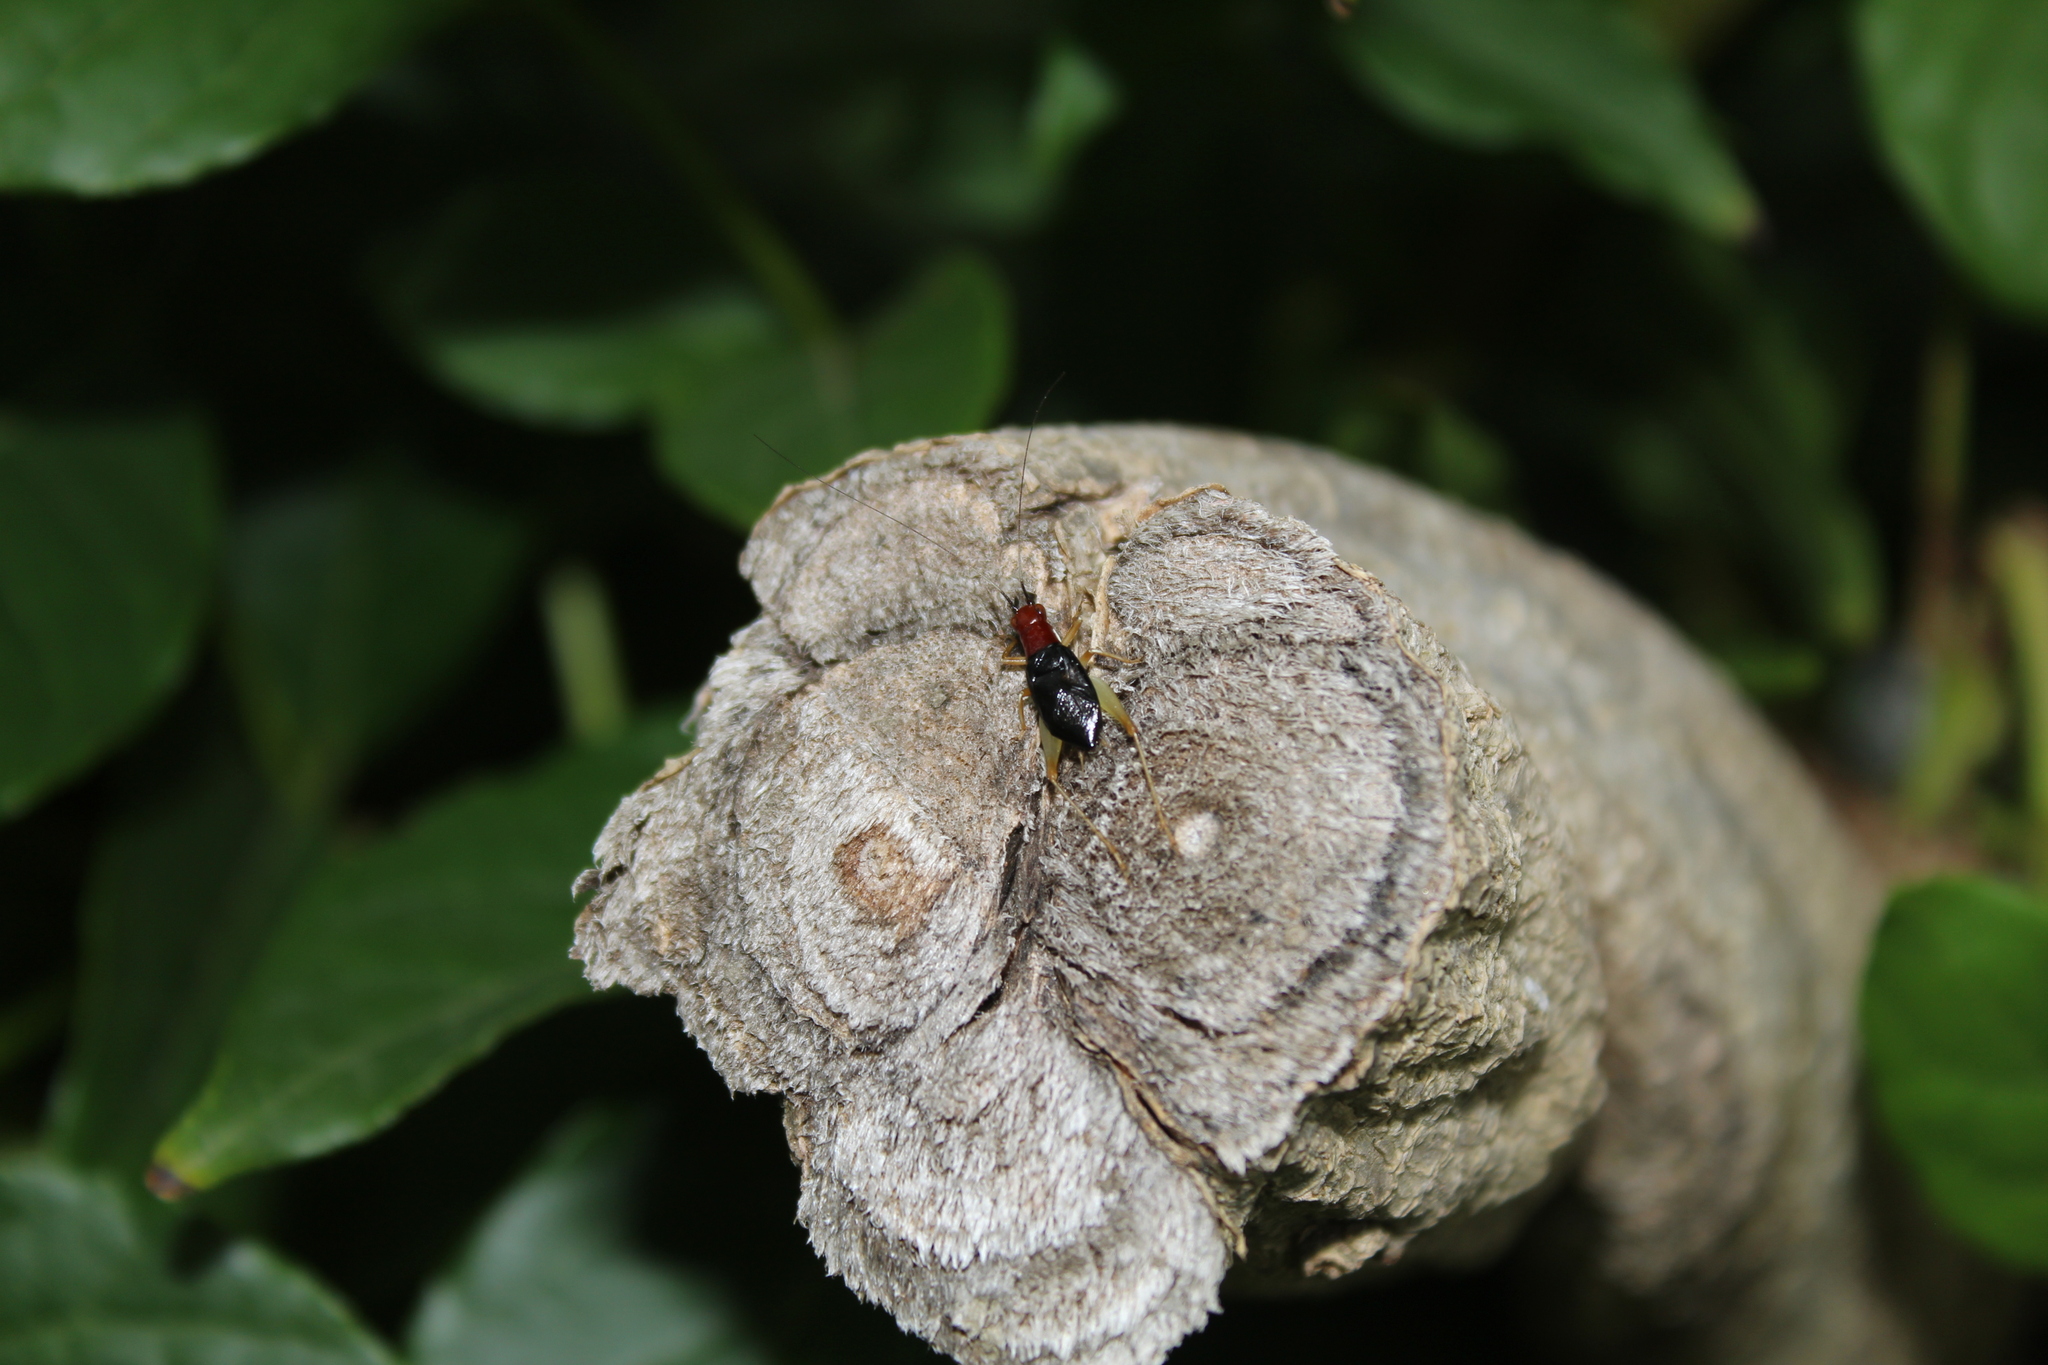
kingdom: Animalia
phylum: Arthropoda
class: Insecta
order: Orthoptera
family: Trigonidiidae
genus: Phyllopalpus
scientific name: Phyllopalpus pulchellus
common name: Handsome trig
